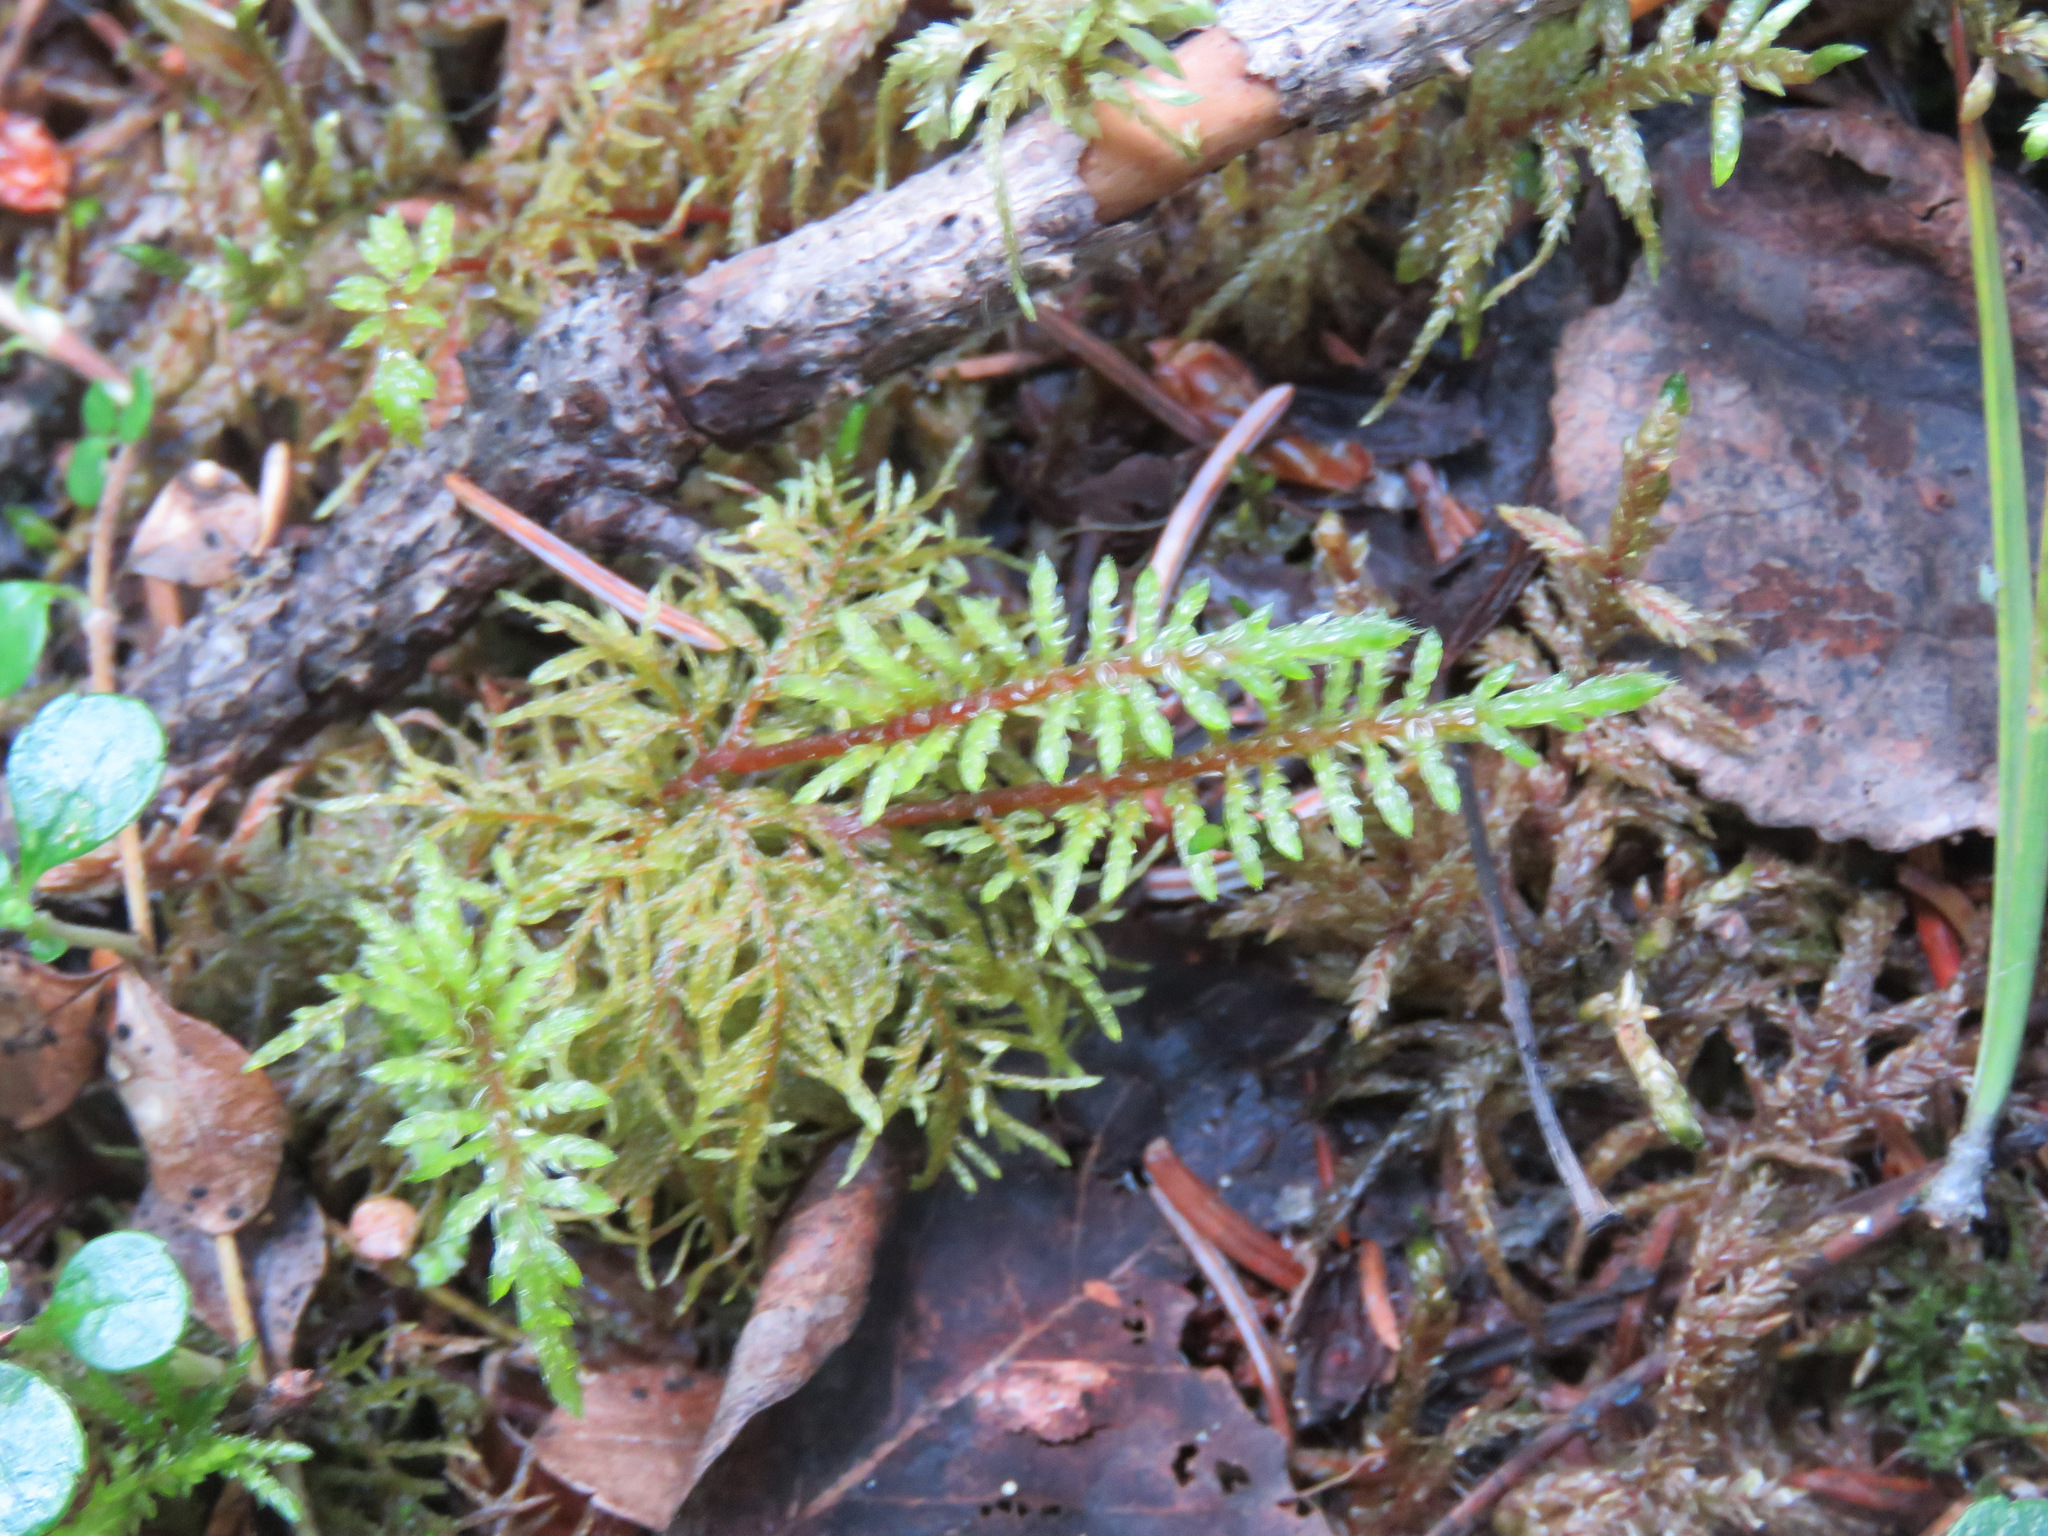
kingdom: Plantae
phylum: Bryophyta
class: Bryopsida
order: Hypnales
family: Hylocomiaceae
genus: Hylocomium
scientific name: Hylocomium splendens
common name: Stairstep moss
